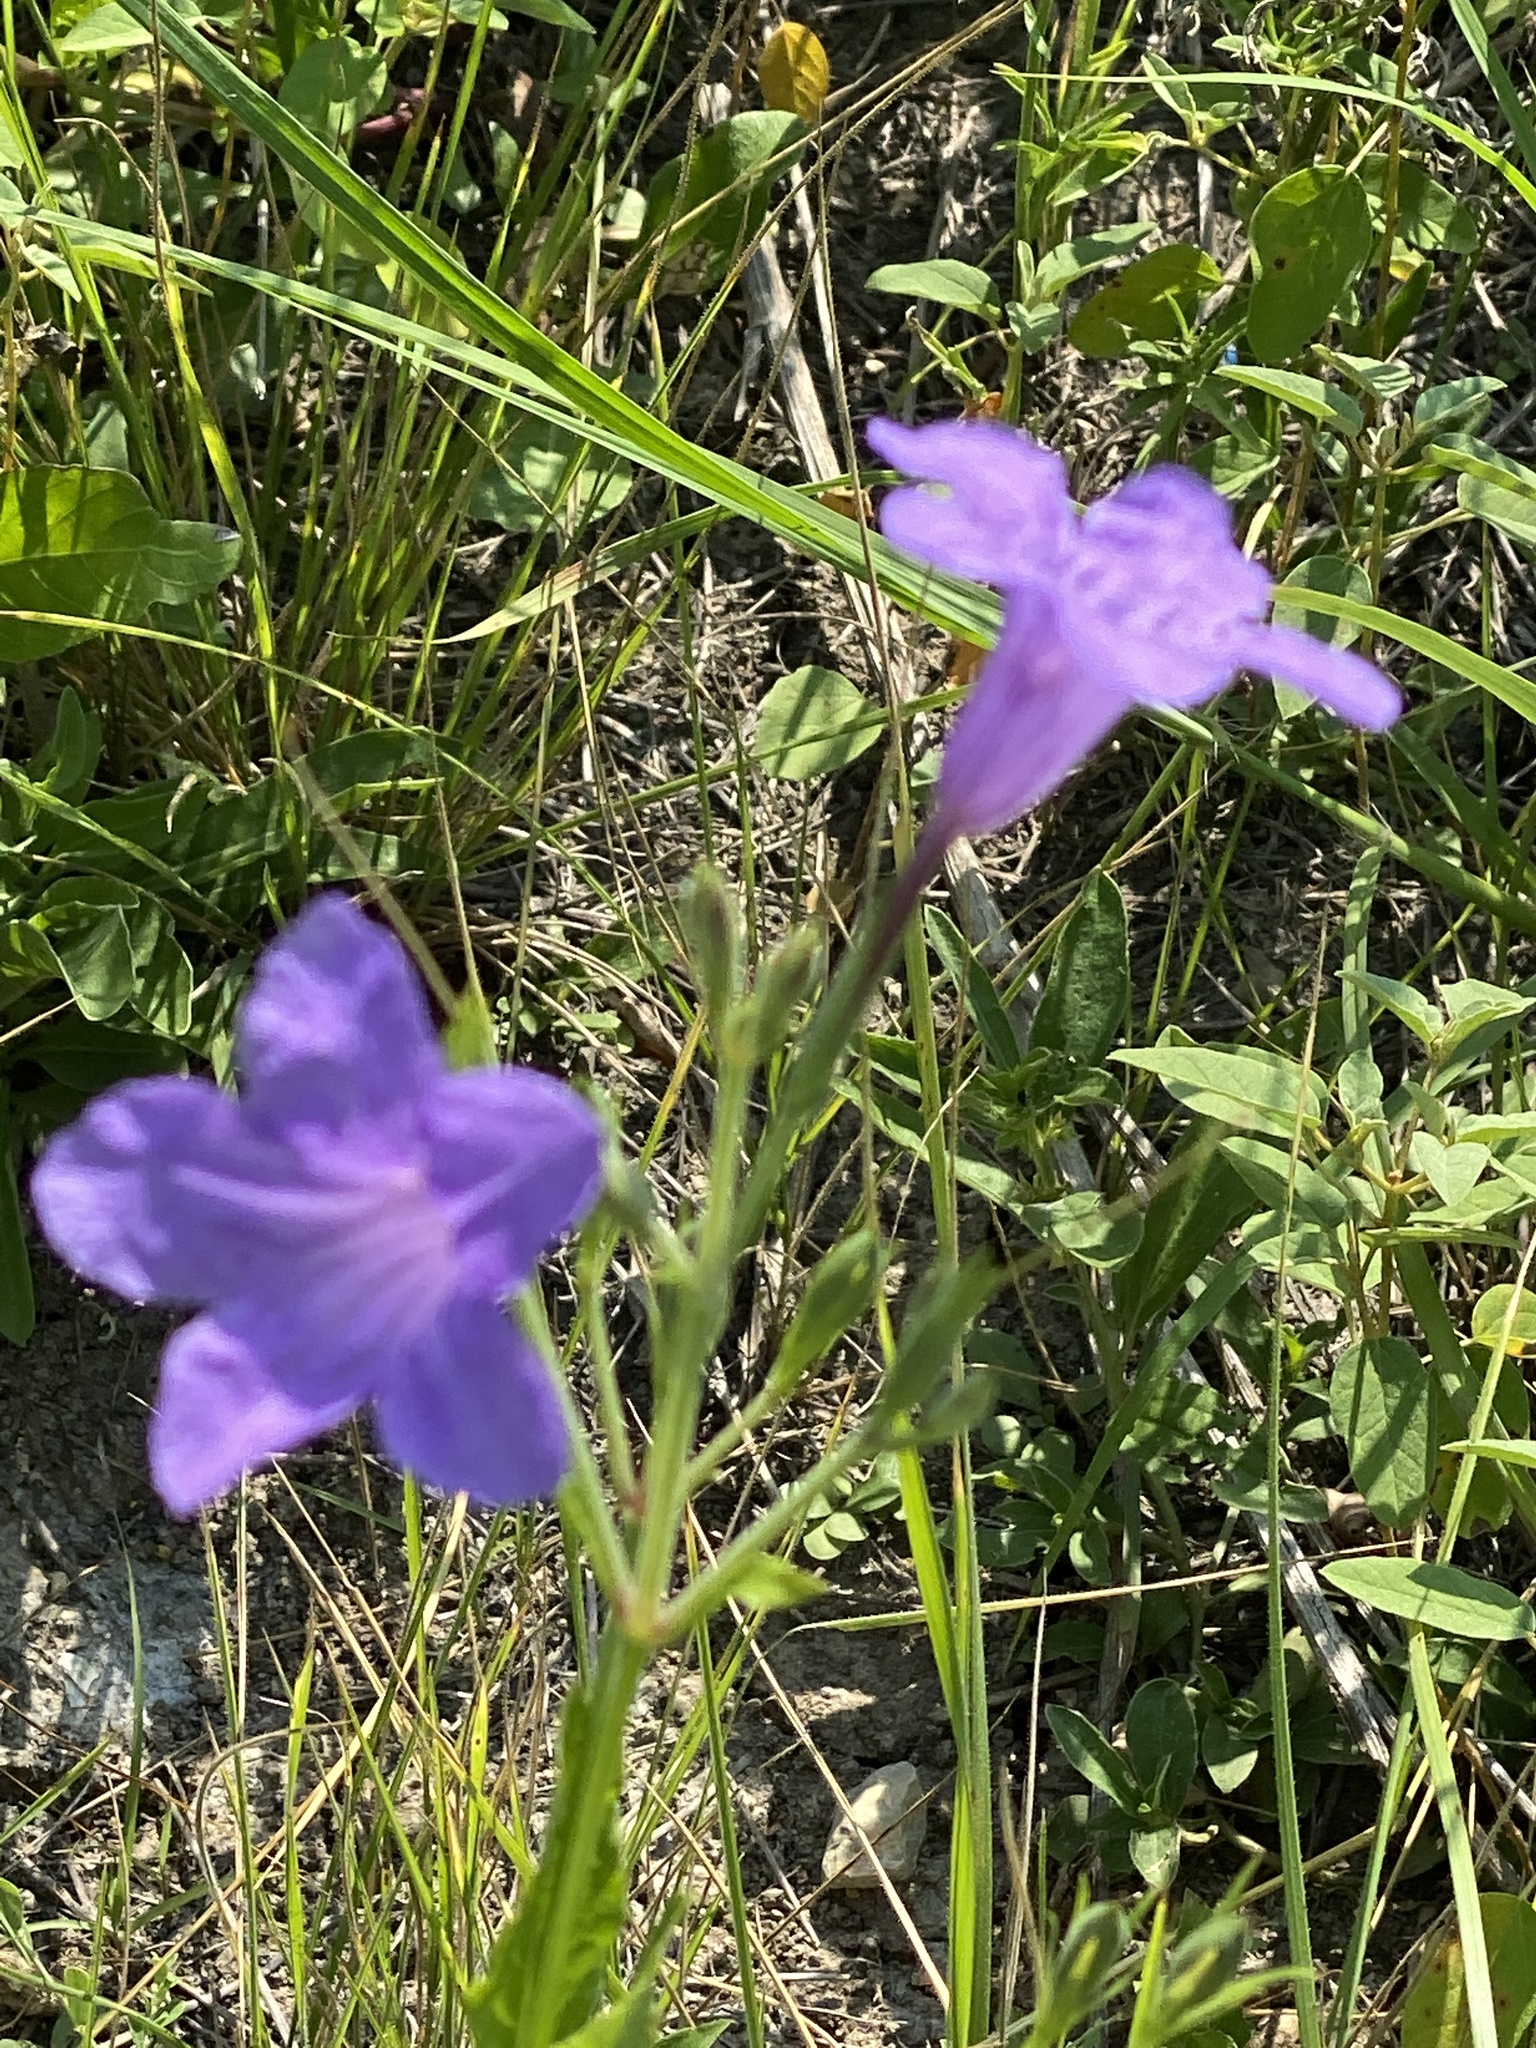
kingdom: Plantae
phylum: Tracheophyta
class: Magnoliopsida
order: Lamiales
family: Acanthaceae
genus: Ruellia
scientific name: Ruellia ciliatiflora
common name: Hairyflower wild petunia
